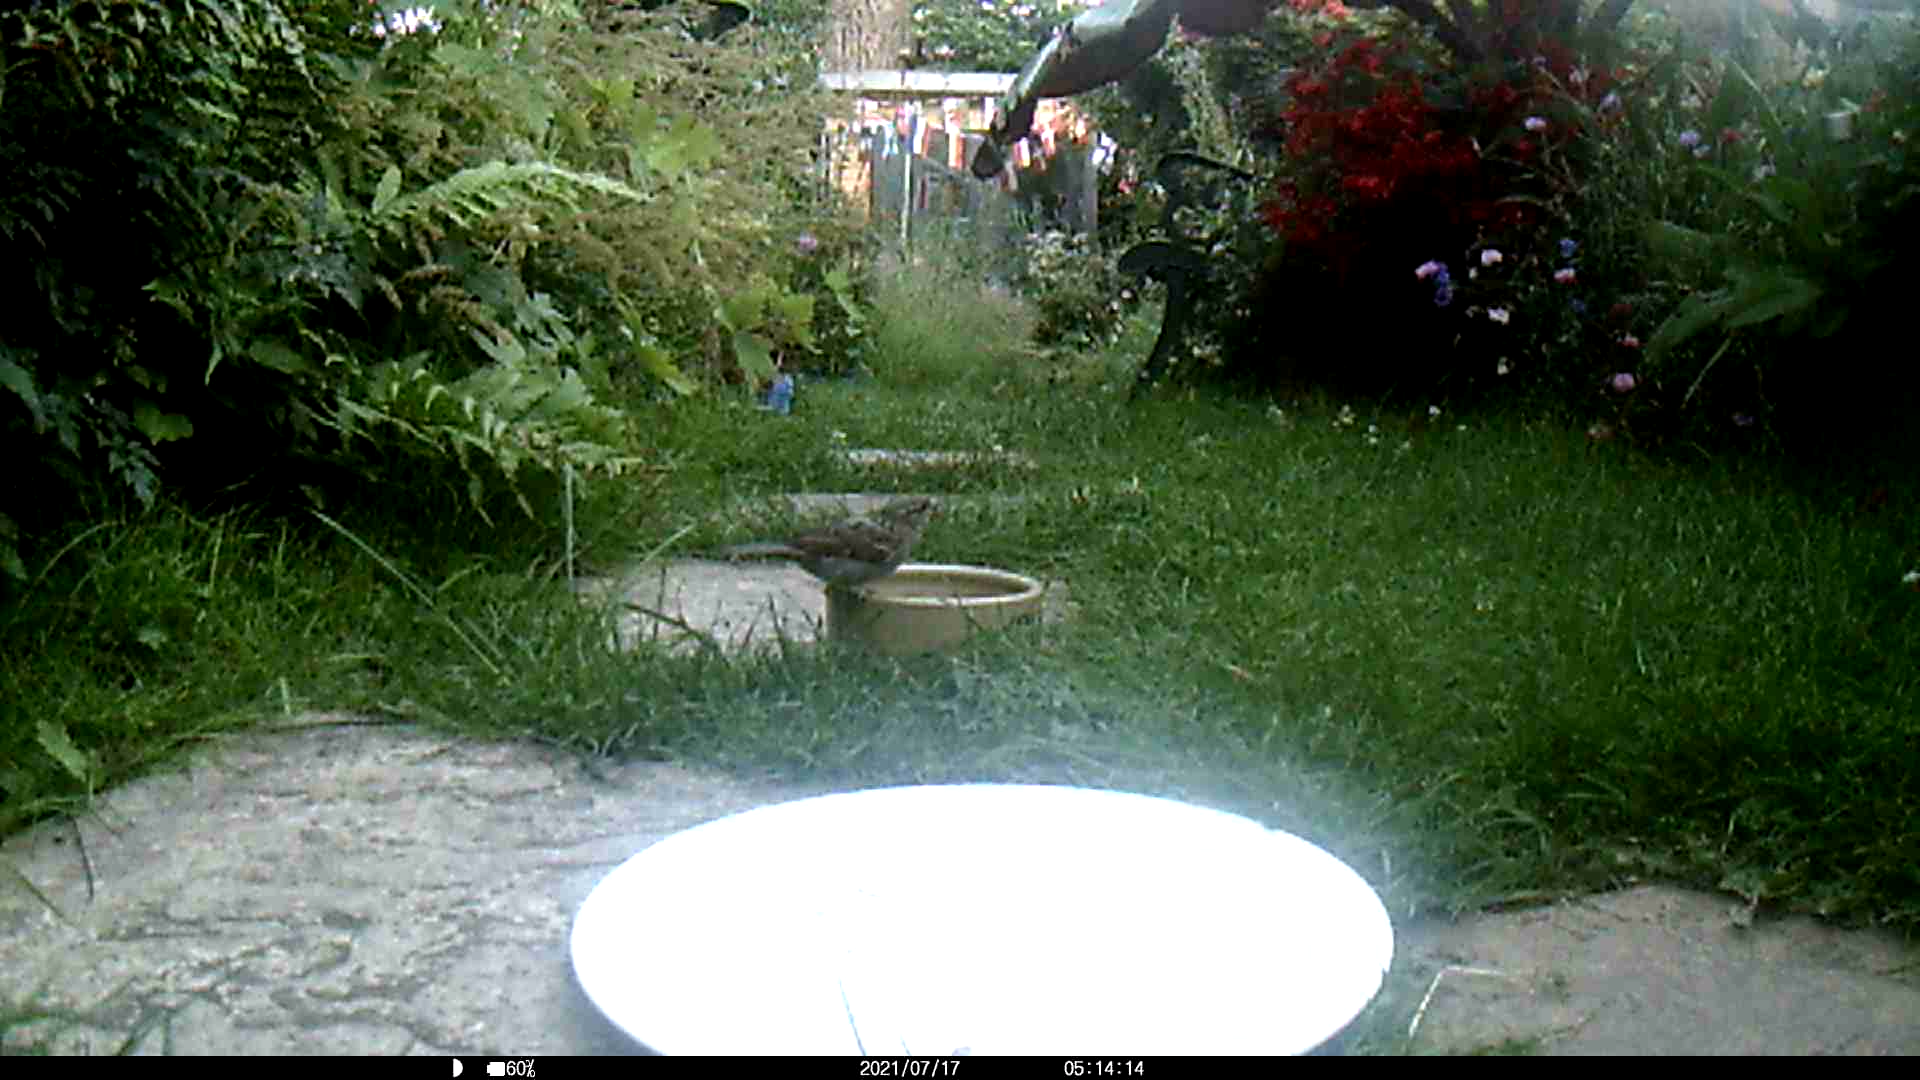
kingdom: Animalia
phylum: Chordata
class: Aves
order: Passeriformes
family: Passeridae
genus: Passer
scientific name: Passer domesticus
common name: House sparrow
